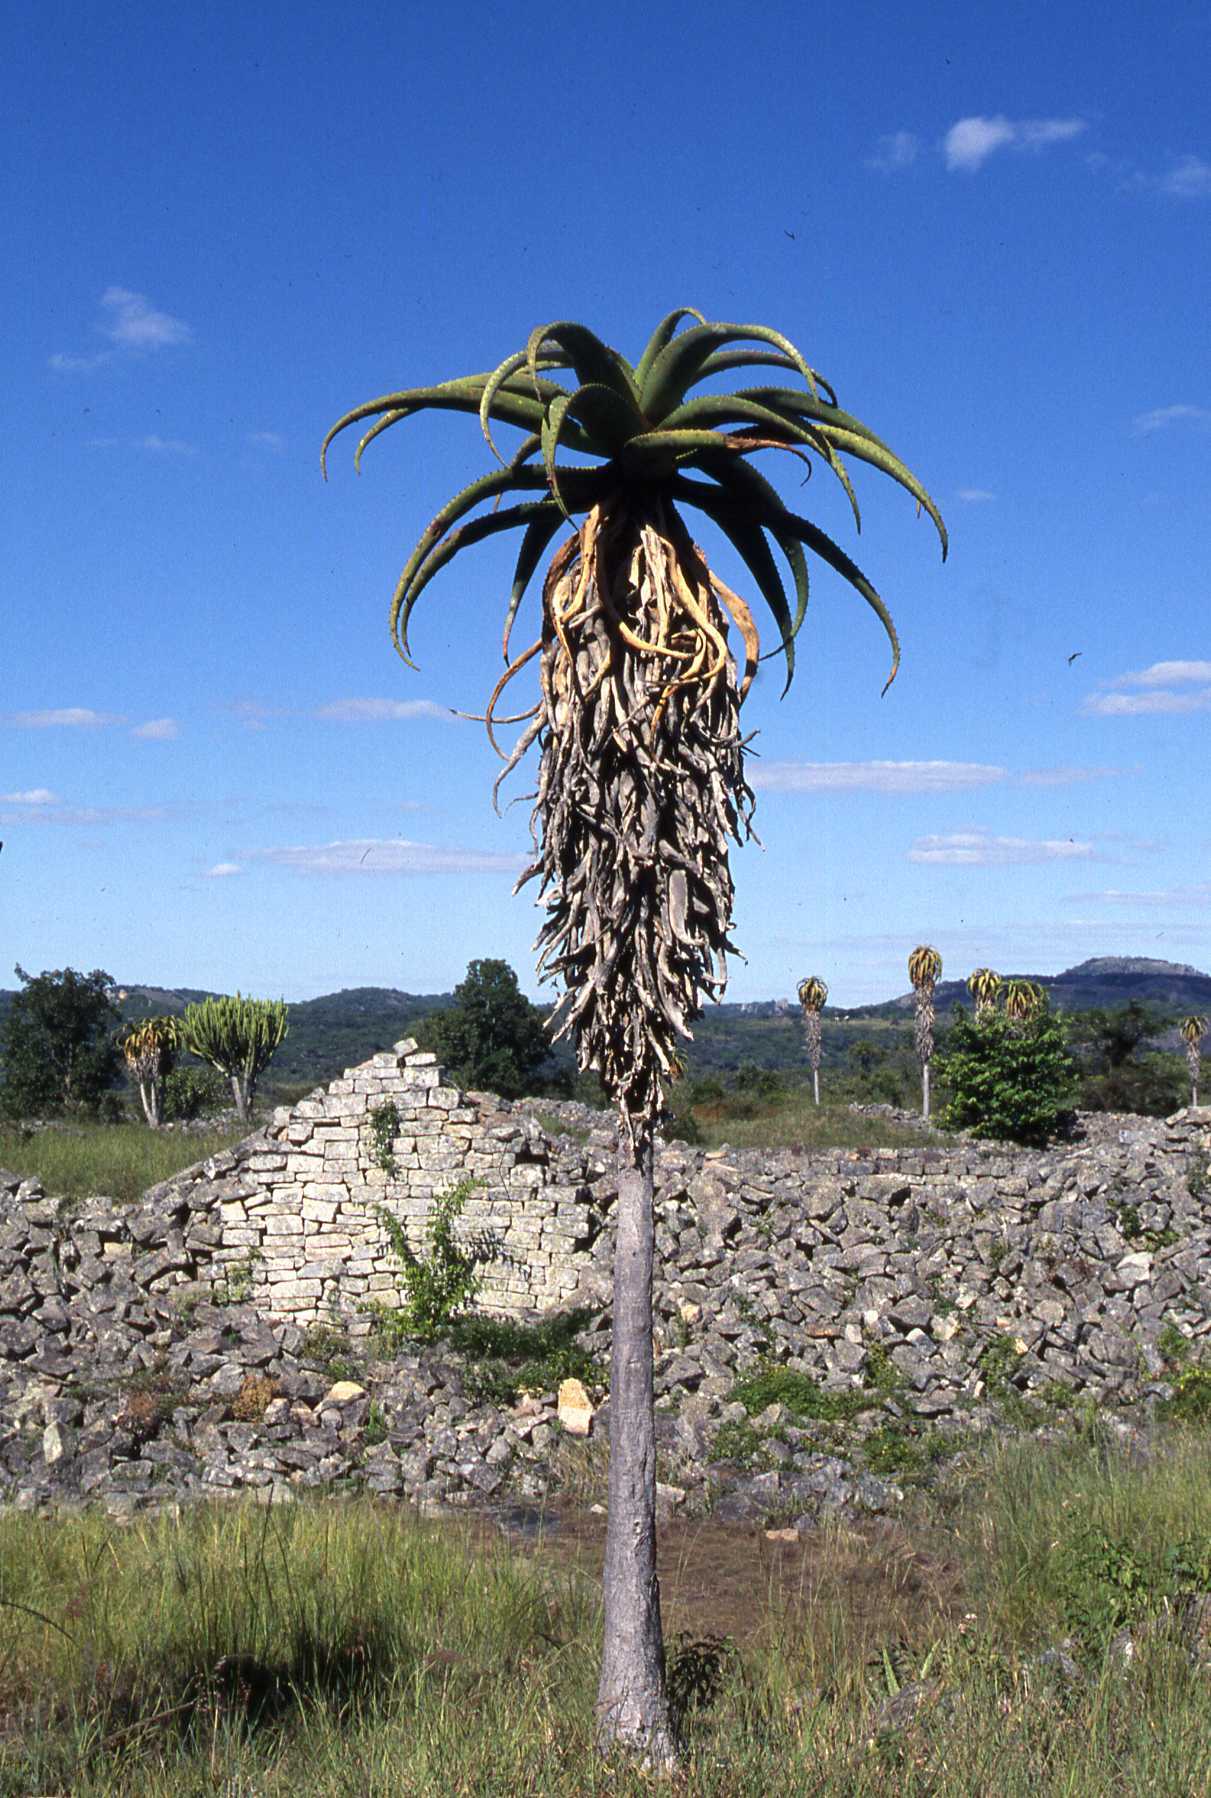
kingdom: Plantae
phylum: Tracheophyta
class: Liliopsida
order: Asparagales
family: Asphodelaceae
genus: Aloe
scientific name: Aloe excelsa
